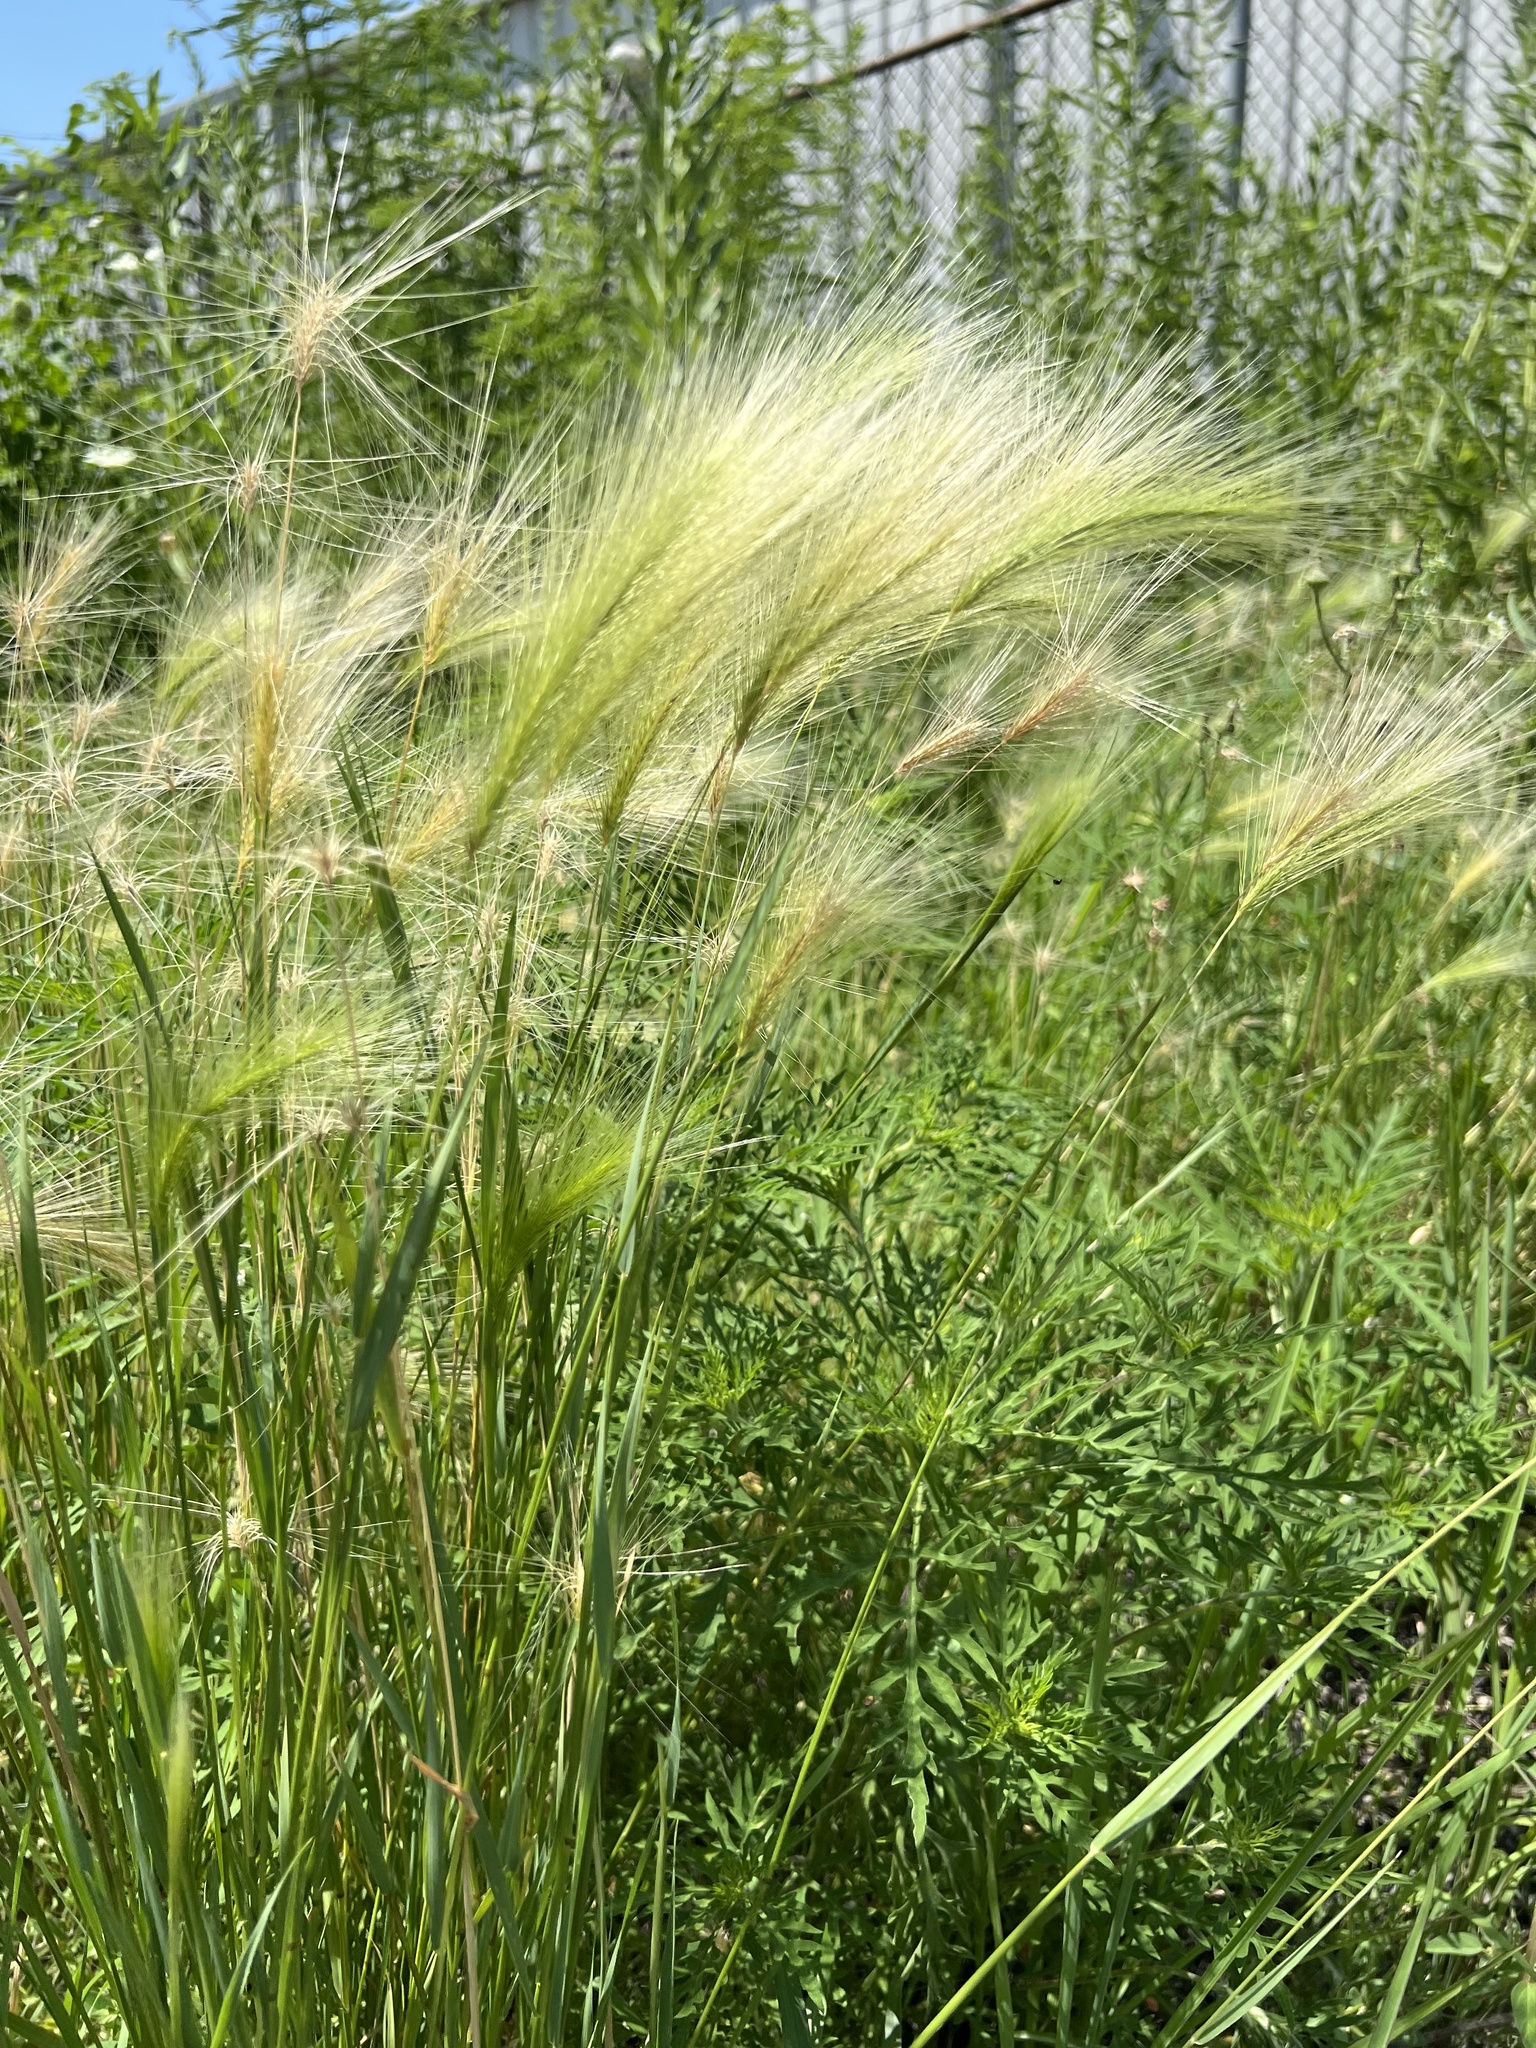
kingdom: Plantae
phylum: Tracheophyta
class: Liliopsida
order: Poales
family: Poaceae
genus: Hordeum
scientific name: Hordeum jubatum
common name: Foxtail barley
